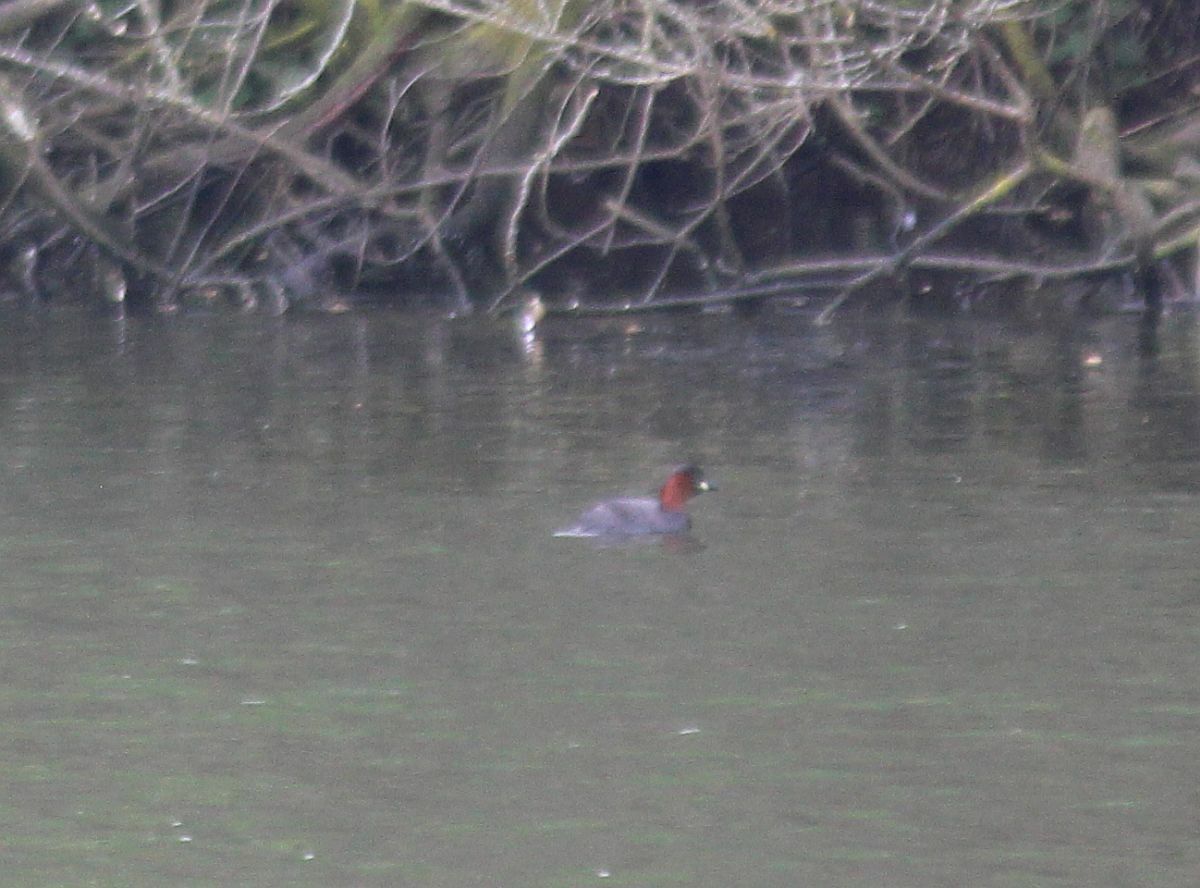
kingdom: Animalia
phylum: Chordata
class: Aves
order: Podicipediformes
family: Podicipedidae
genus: Tachybaptus
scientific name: Tachybaptus ruficollis
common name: Little grebe
